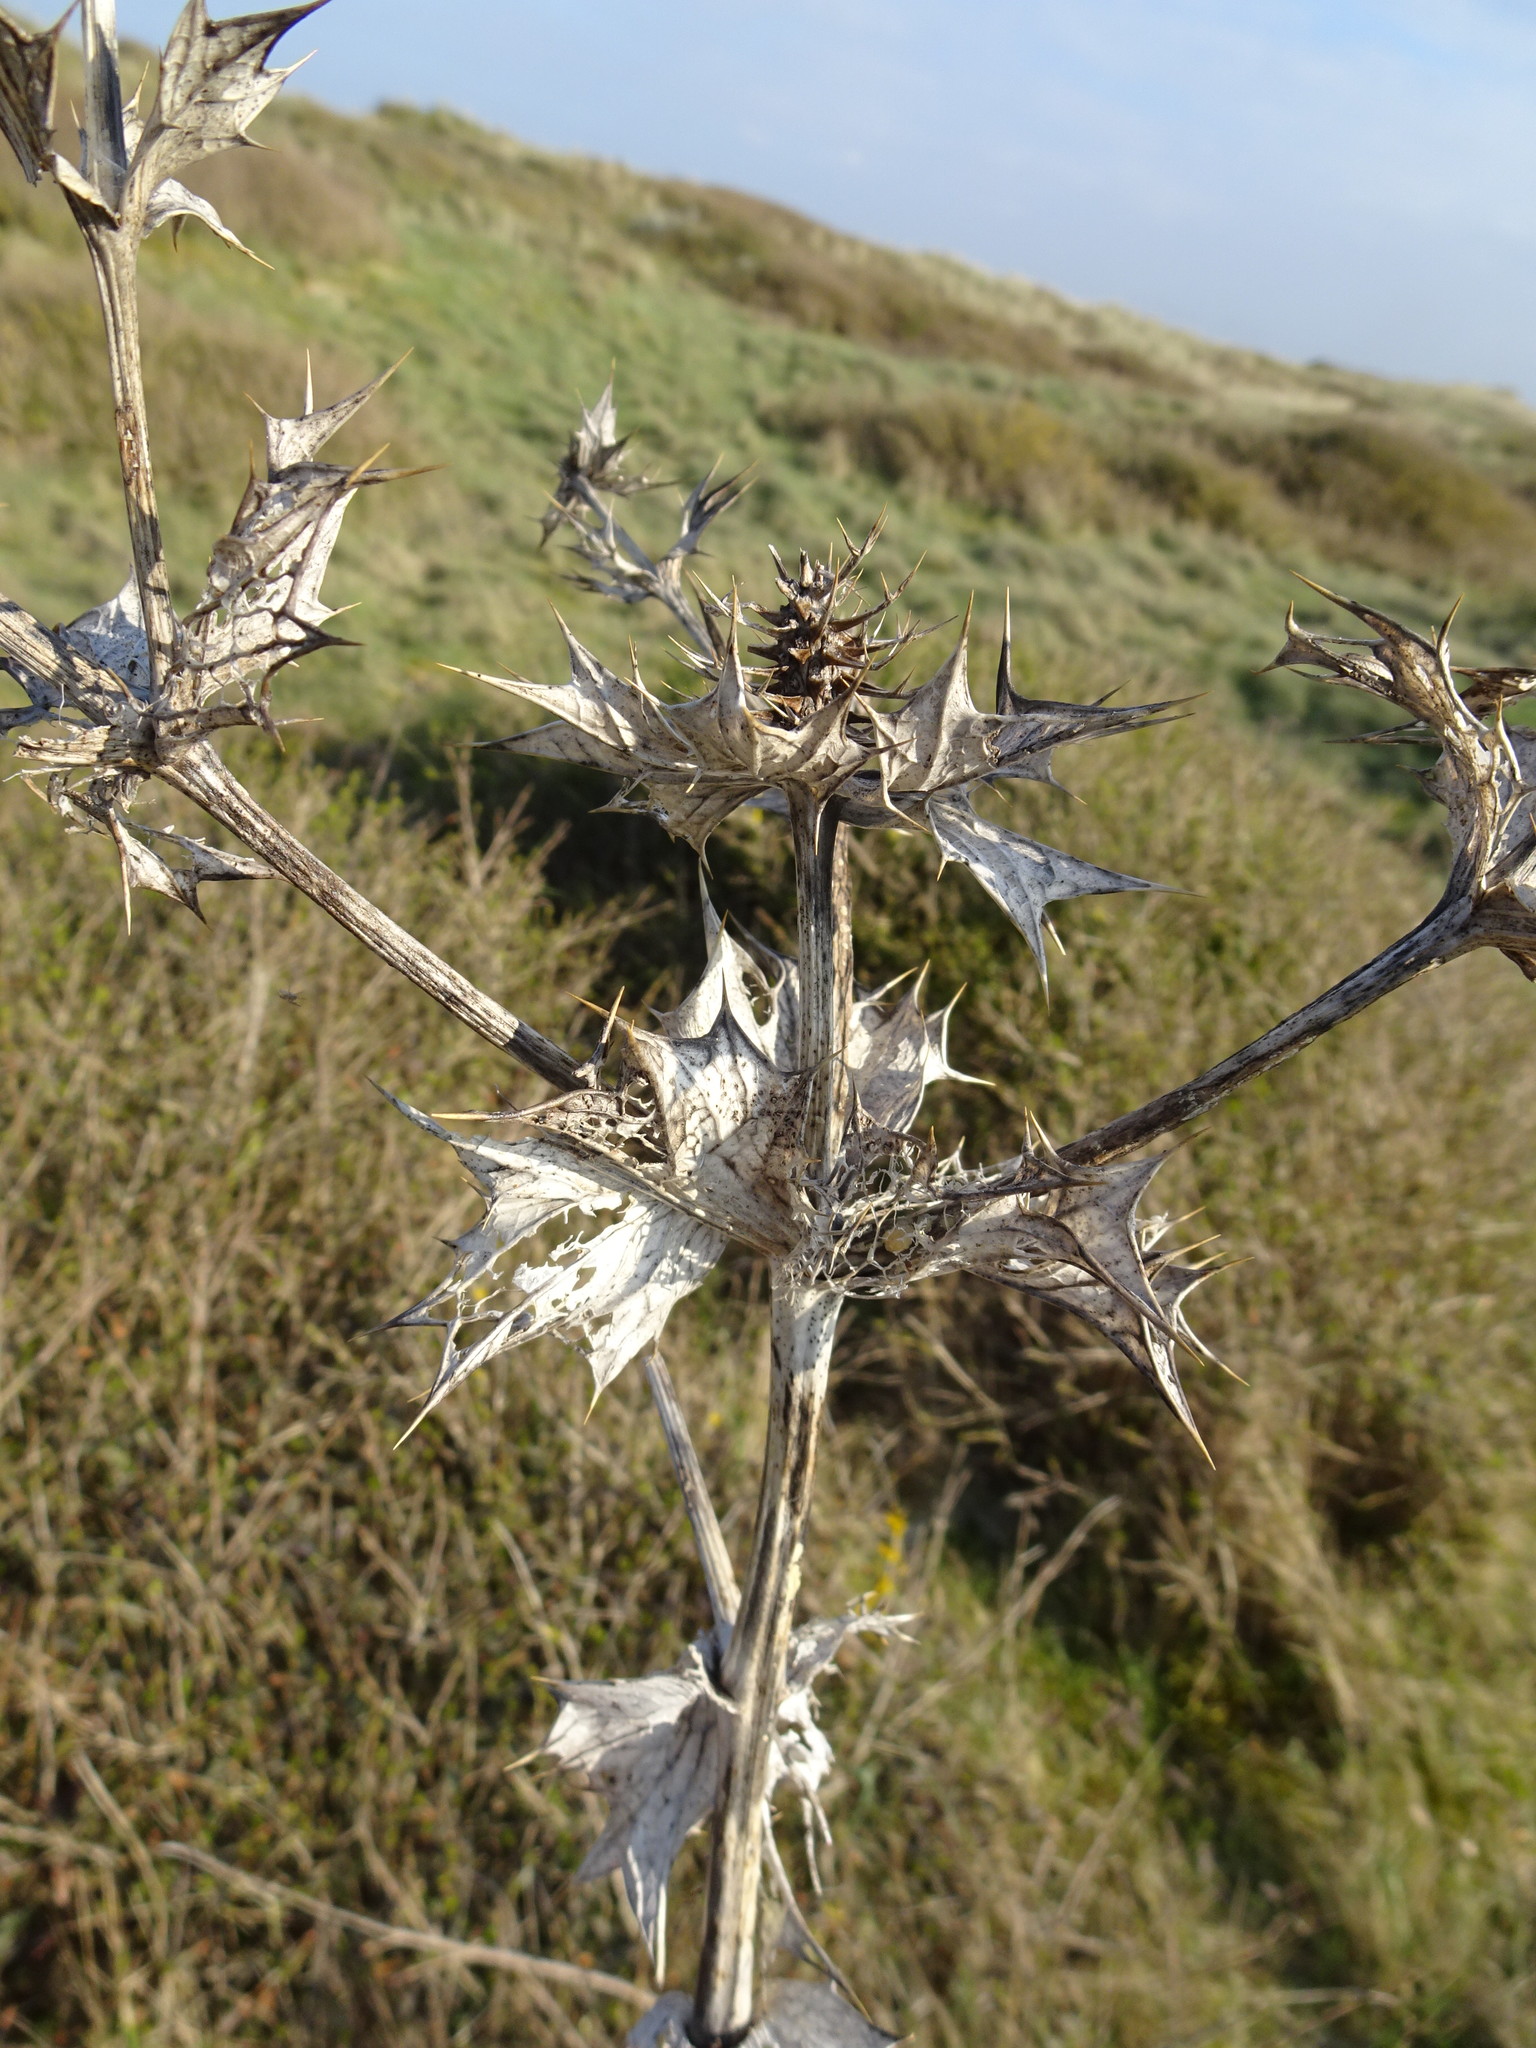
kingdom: Plantae
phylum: Tracheophyta
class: Magnoliopsida
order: Apiales
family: Apiaceae
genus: Eryngium
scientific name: Eryngium maritimum
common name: Sea-holly
